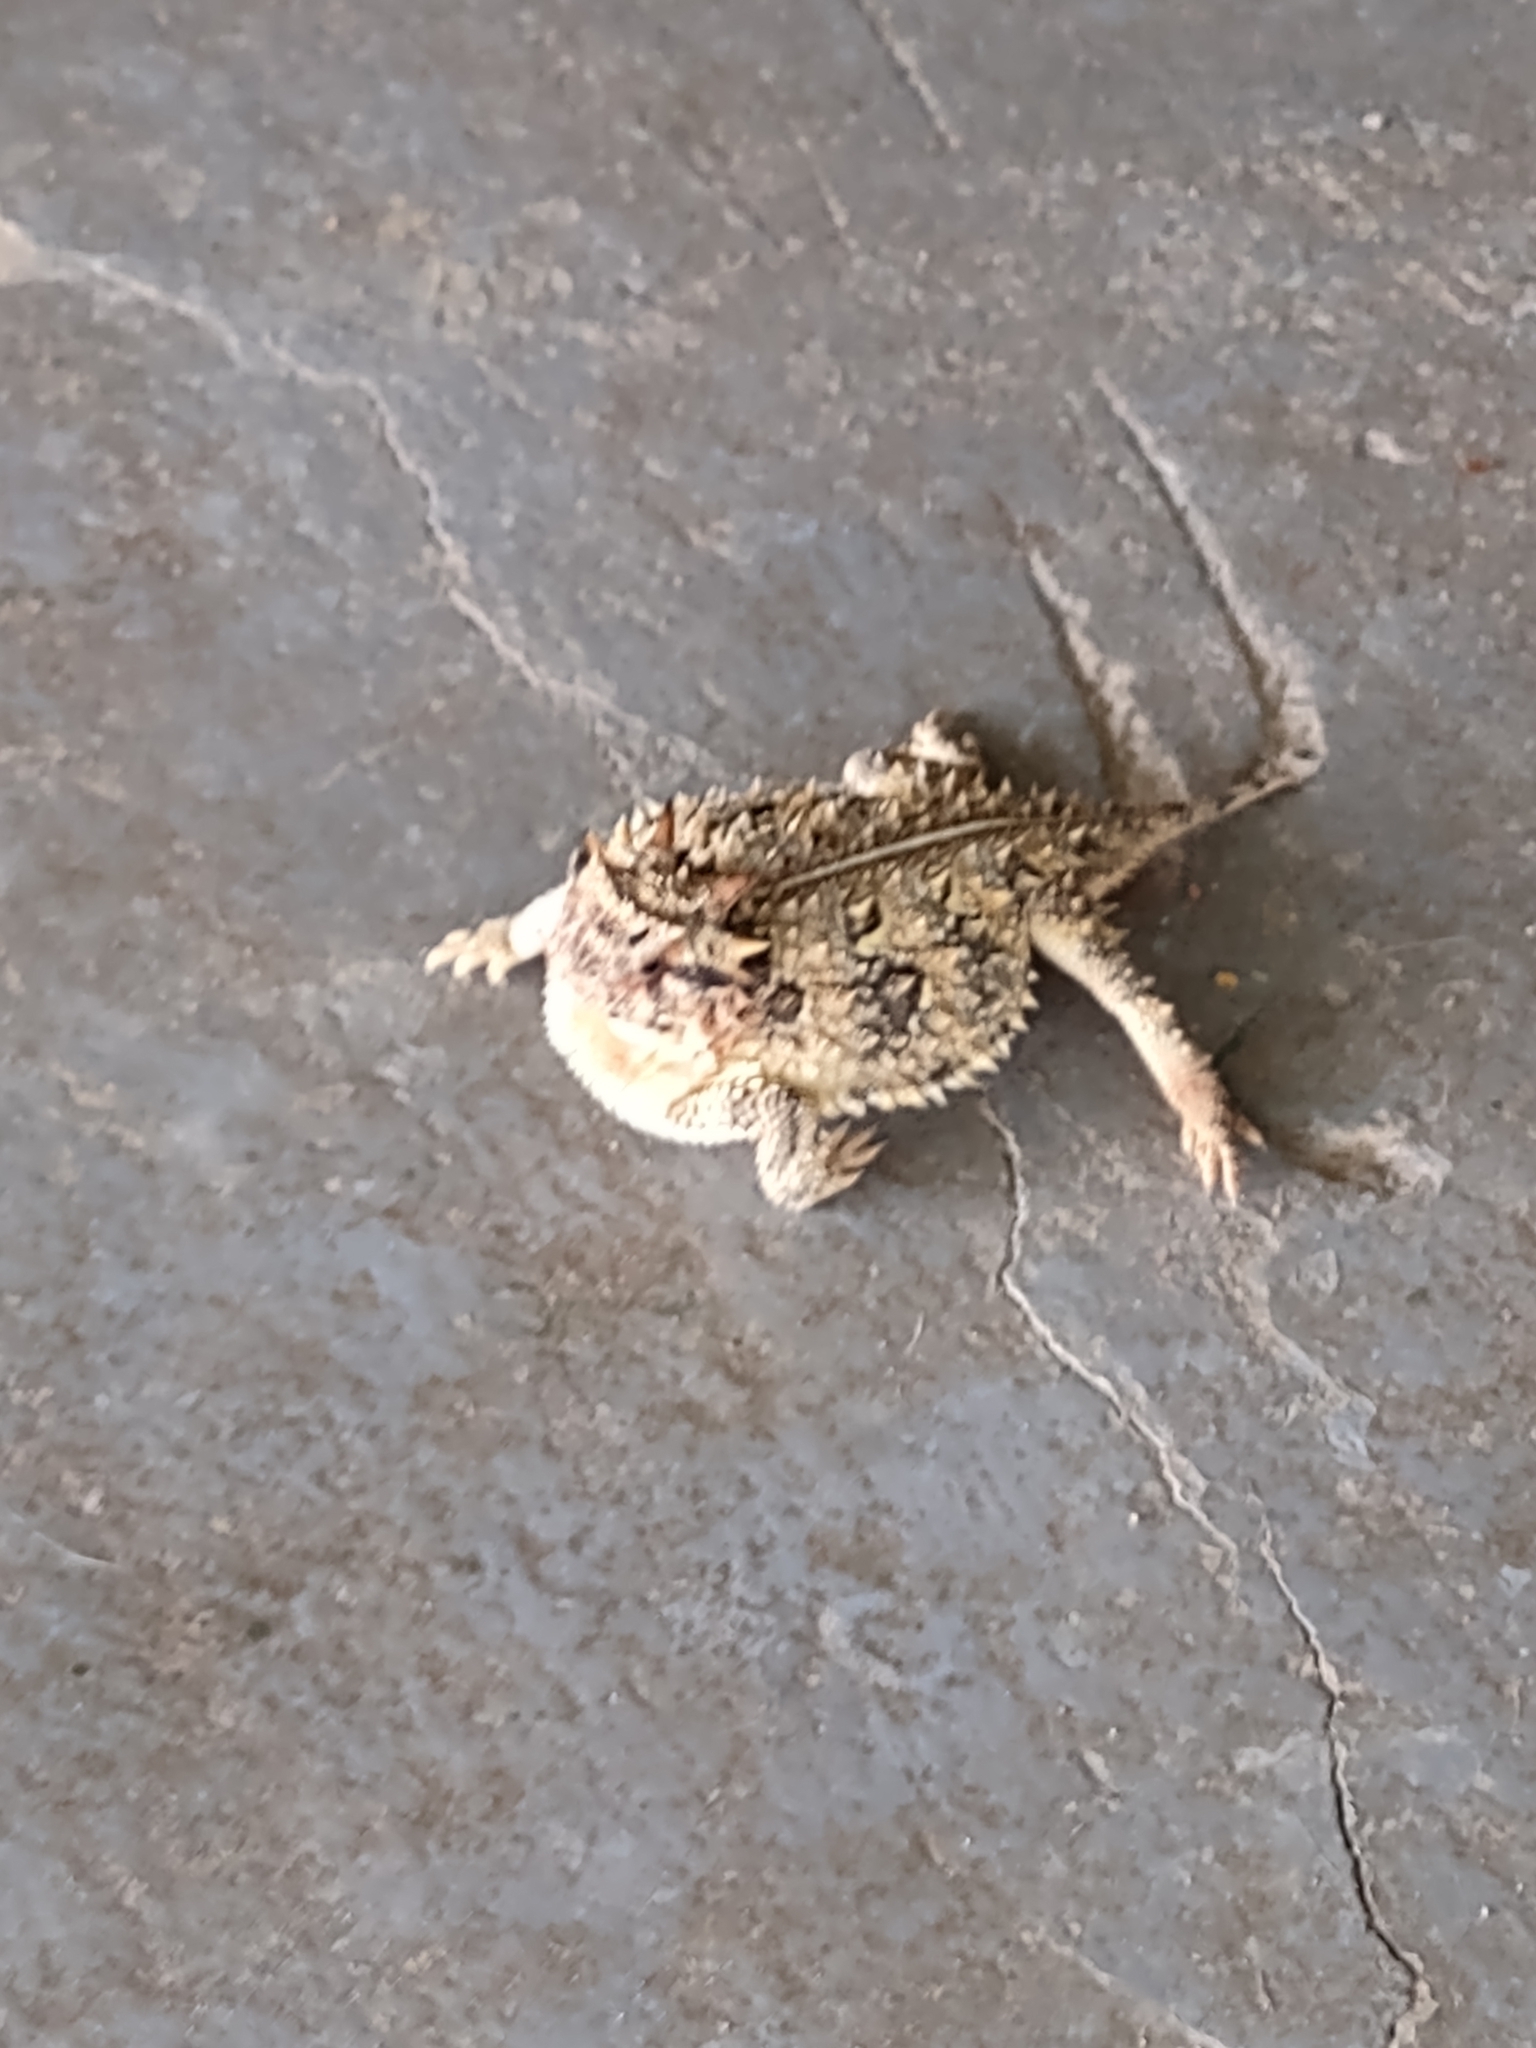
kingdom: Animalia
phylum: Chordata
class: Squamata
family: Phrynosomatidae
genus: Phrynosoma
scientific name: Phrynosoma cornutum
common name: Texas horned lizard
